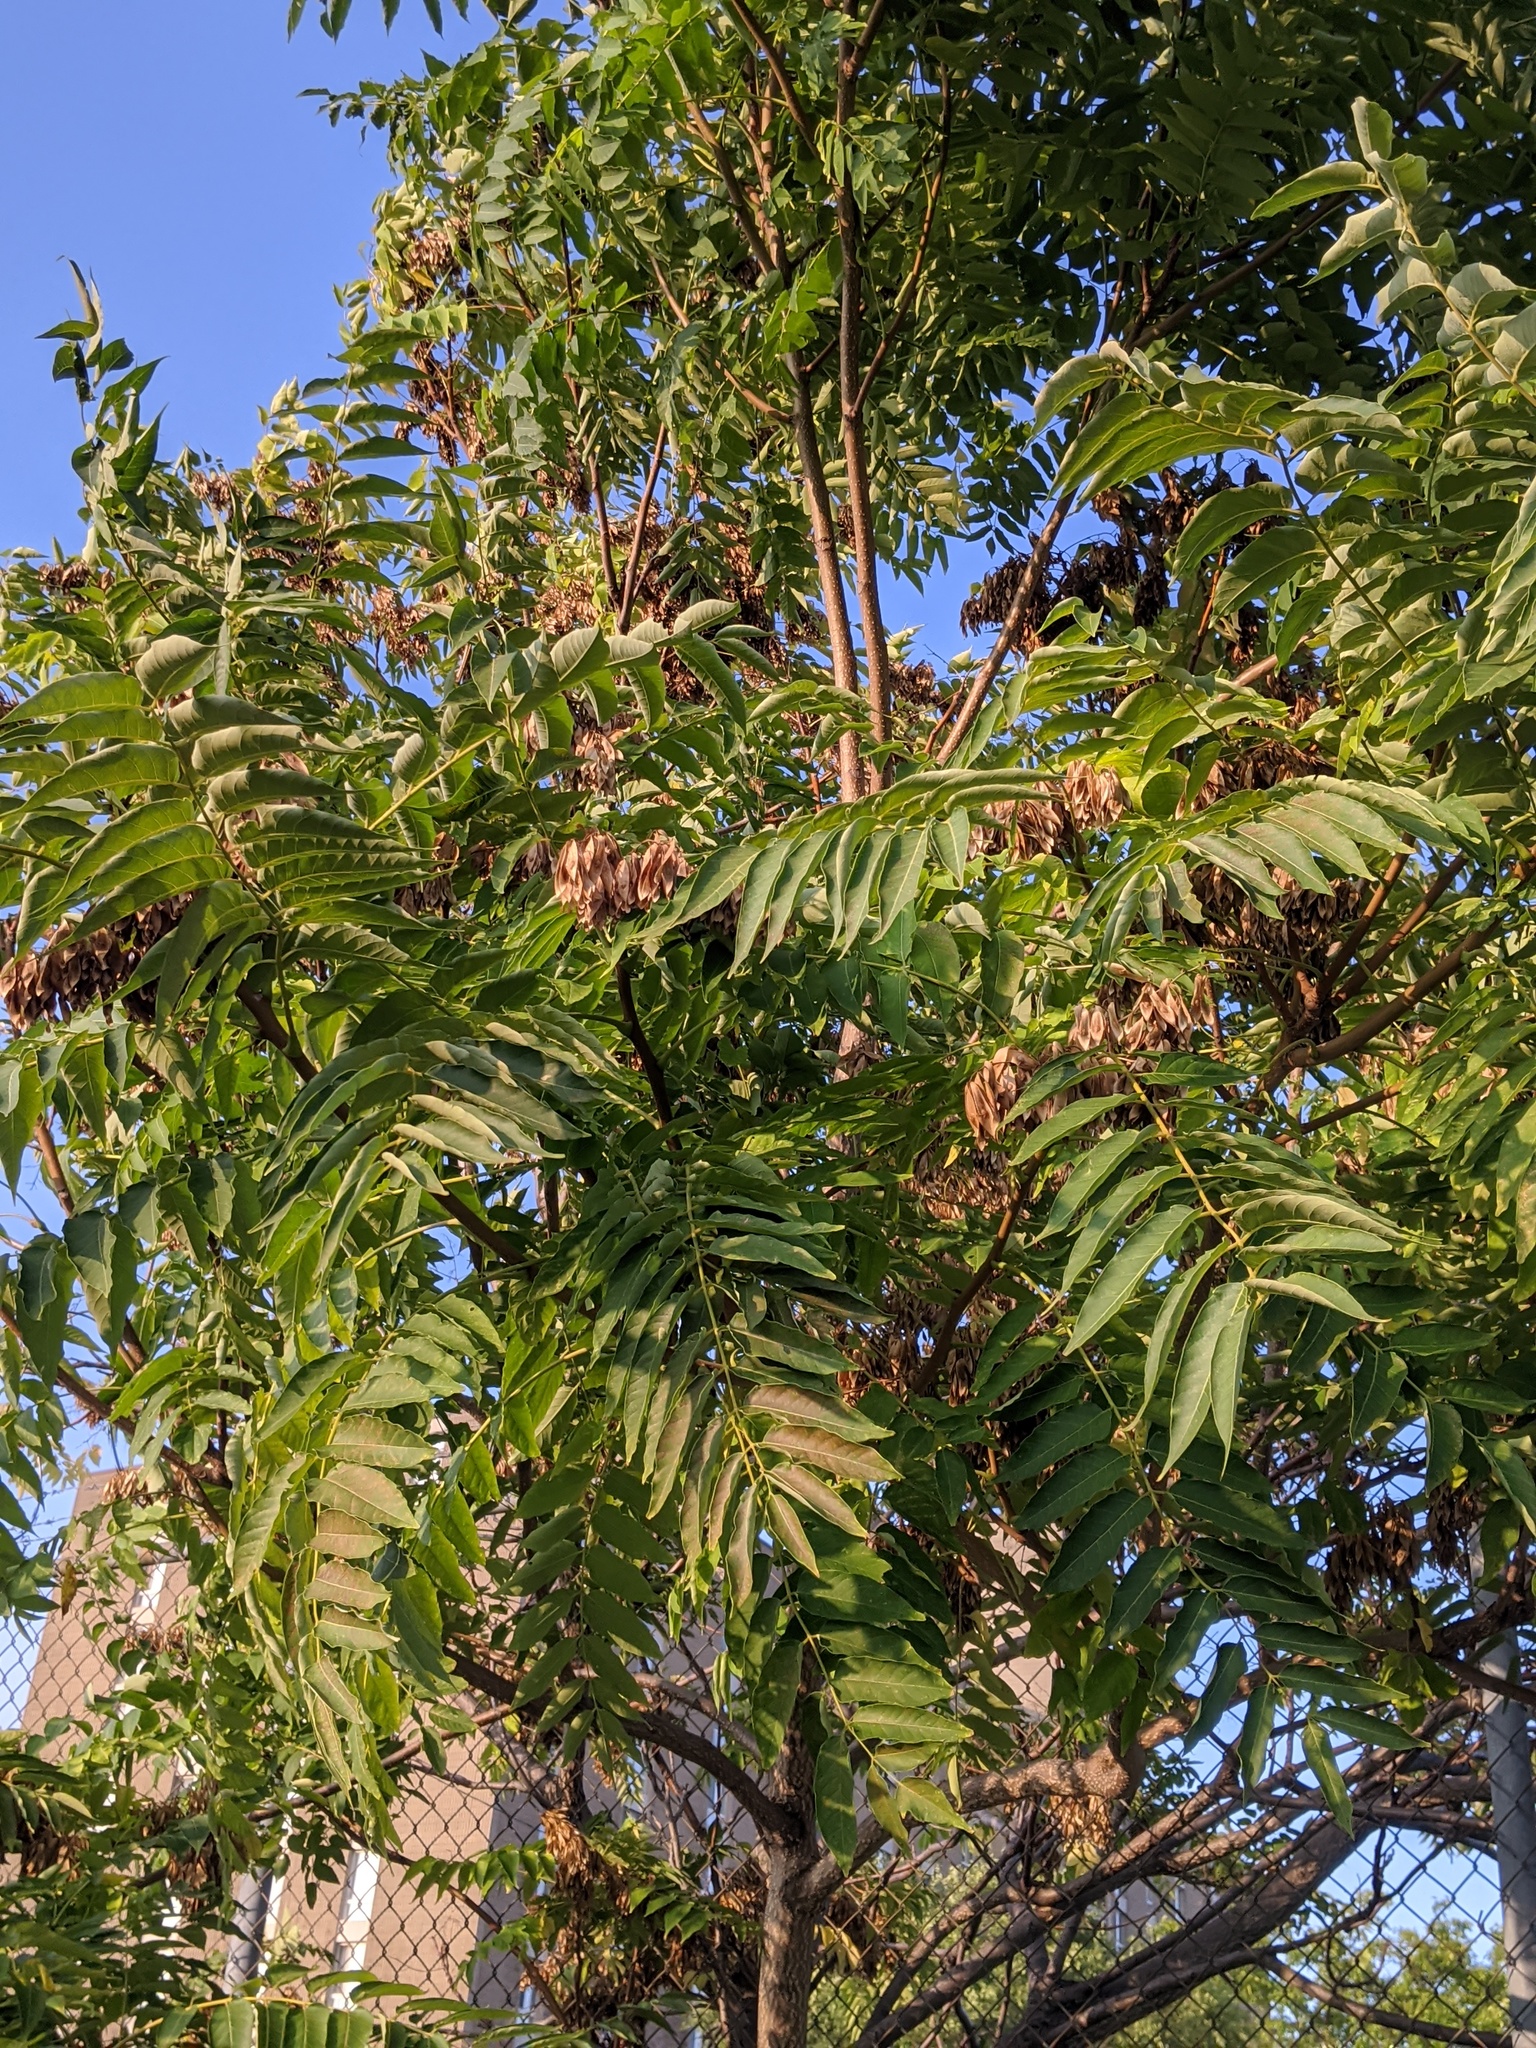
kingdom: Plantae
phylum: Tracheophyta
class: Magnoliopsida
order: Sapindales
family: Simaroubaceae
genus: Ailanthus
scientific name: Ailanthus altissima
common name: Tree-of-heaven
